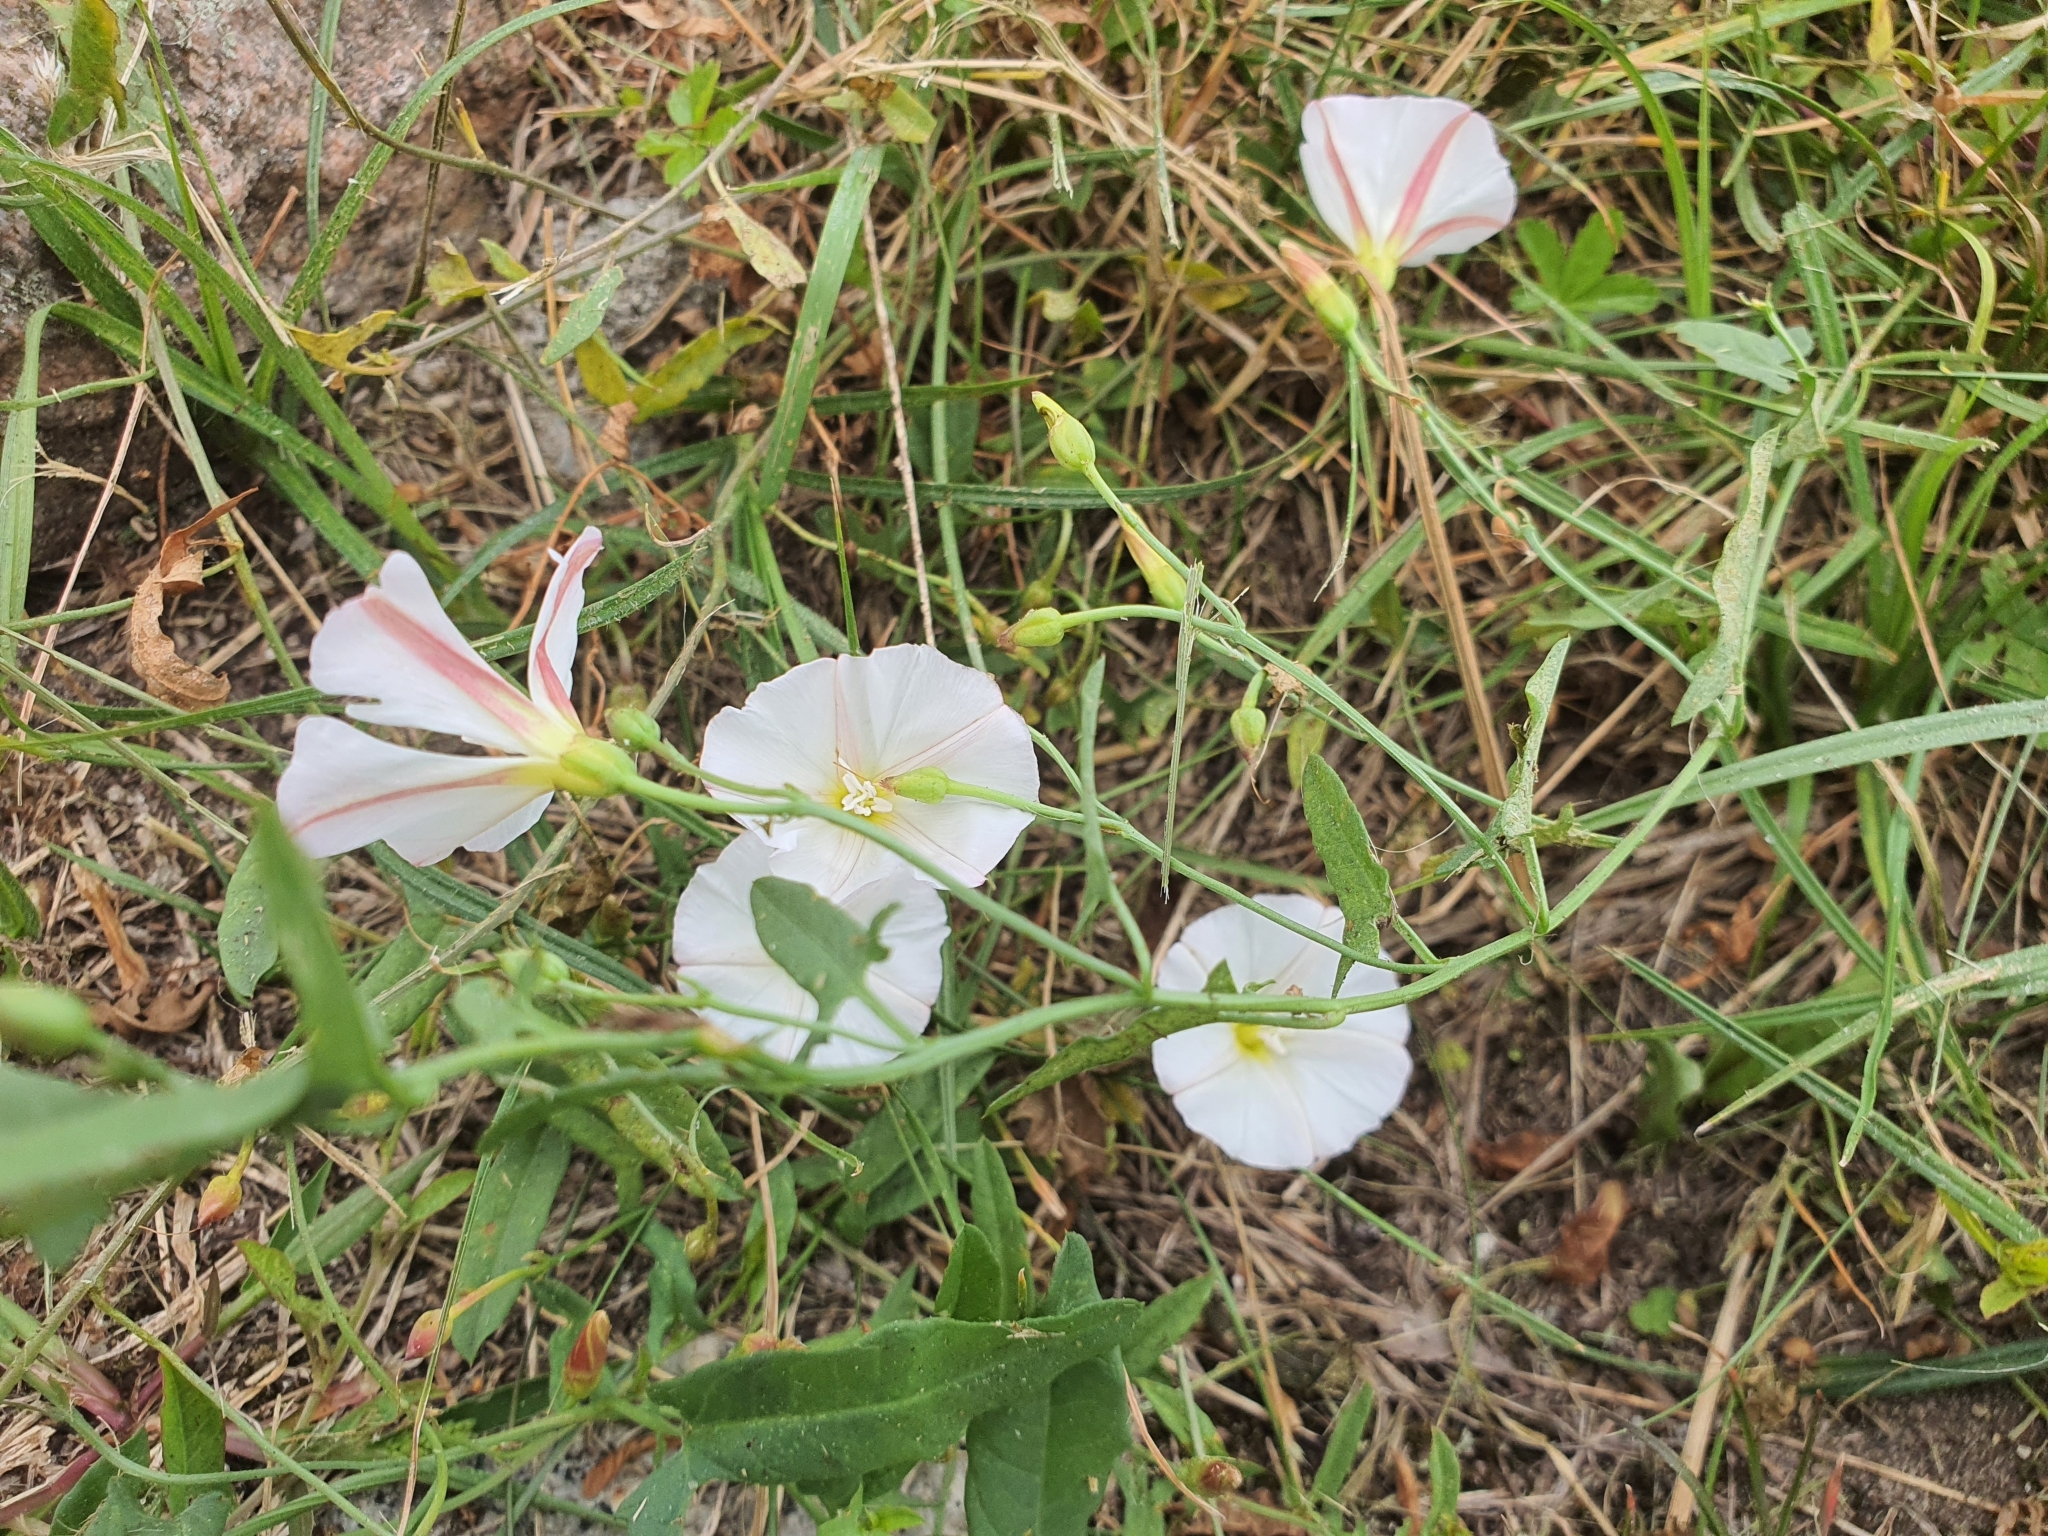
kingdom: Plantae
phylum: Tracheophyta
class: Magnoliopsida
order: Solanales
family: Convolvulaceae
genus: Convolvulus
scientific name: Convolvulus arvensis
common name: Field bindweed
